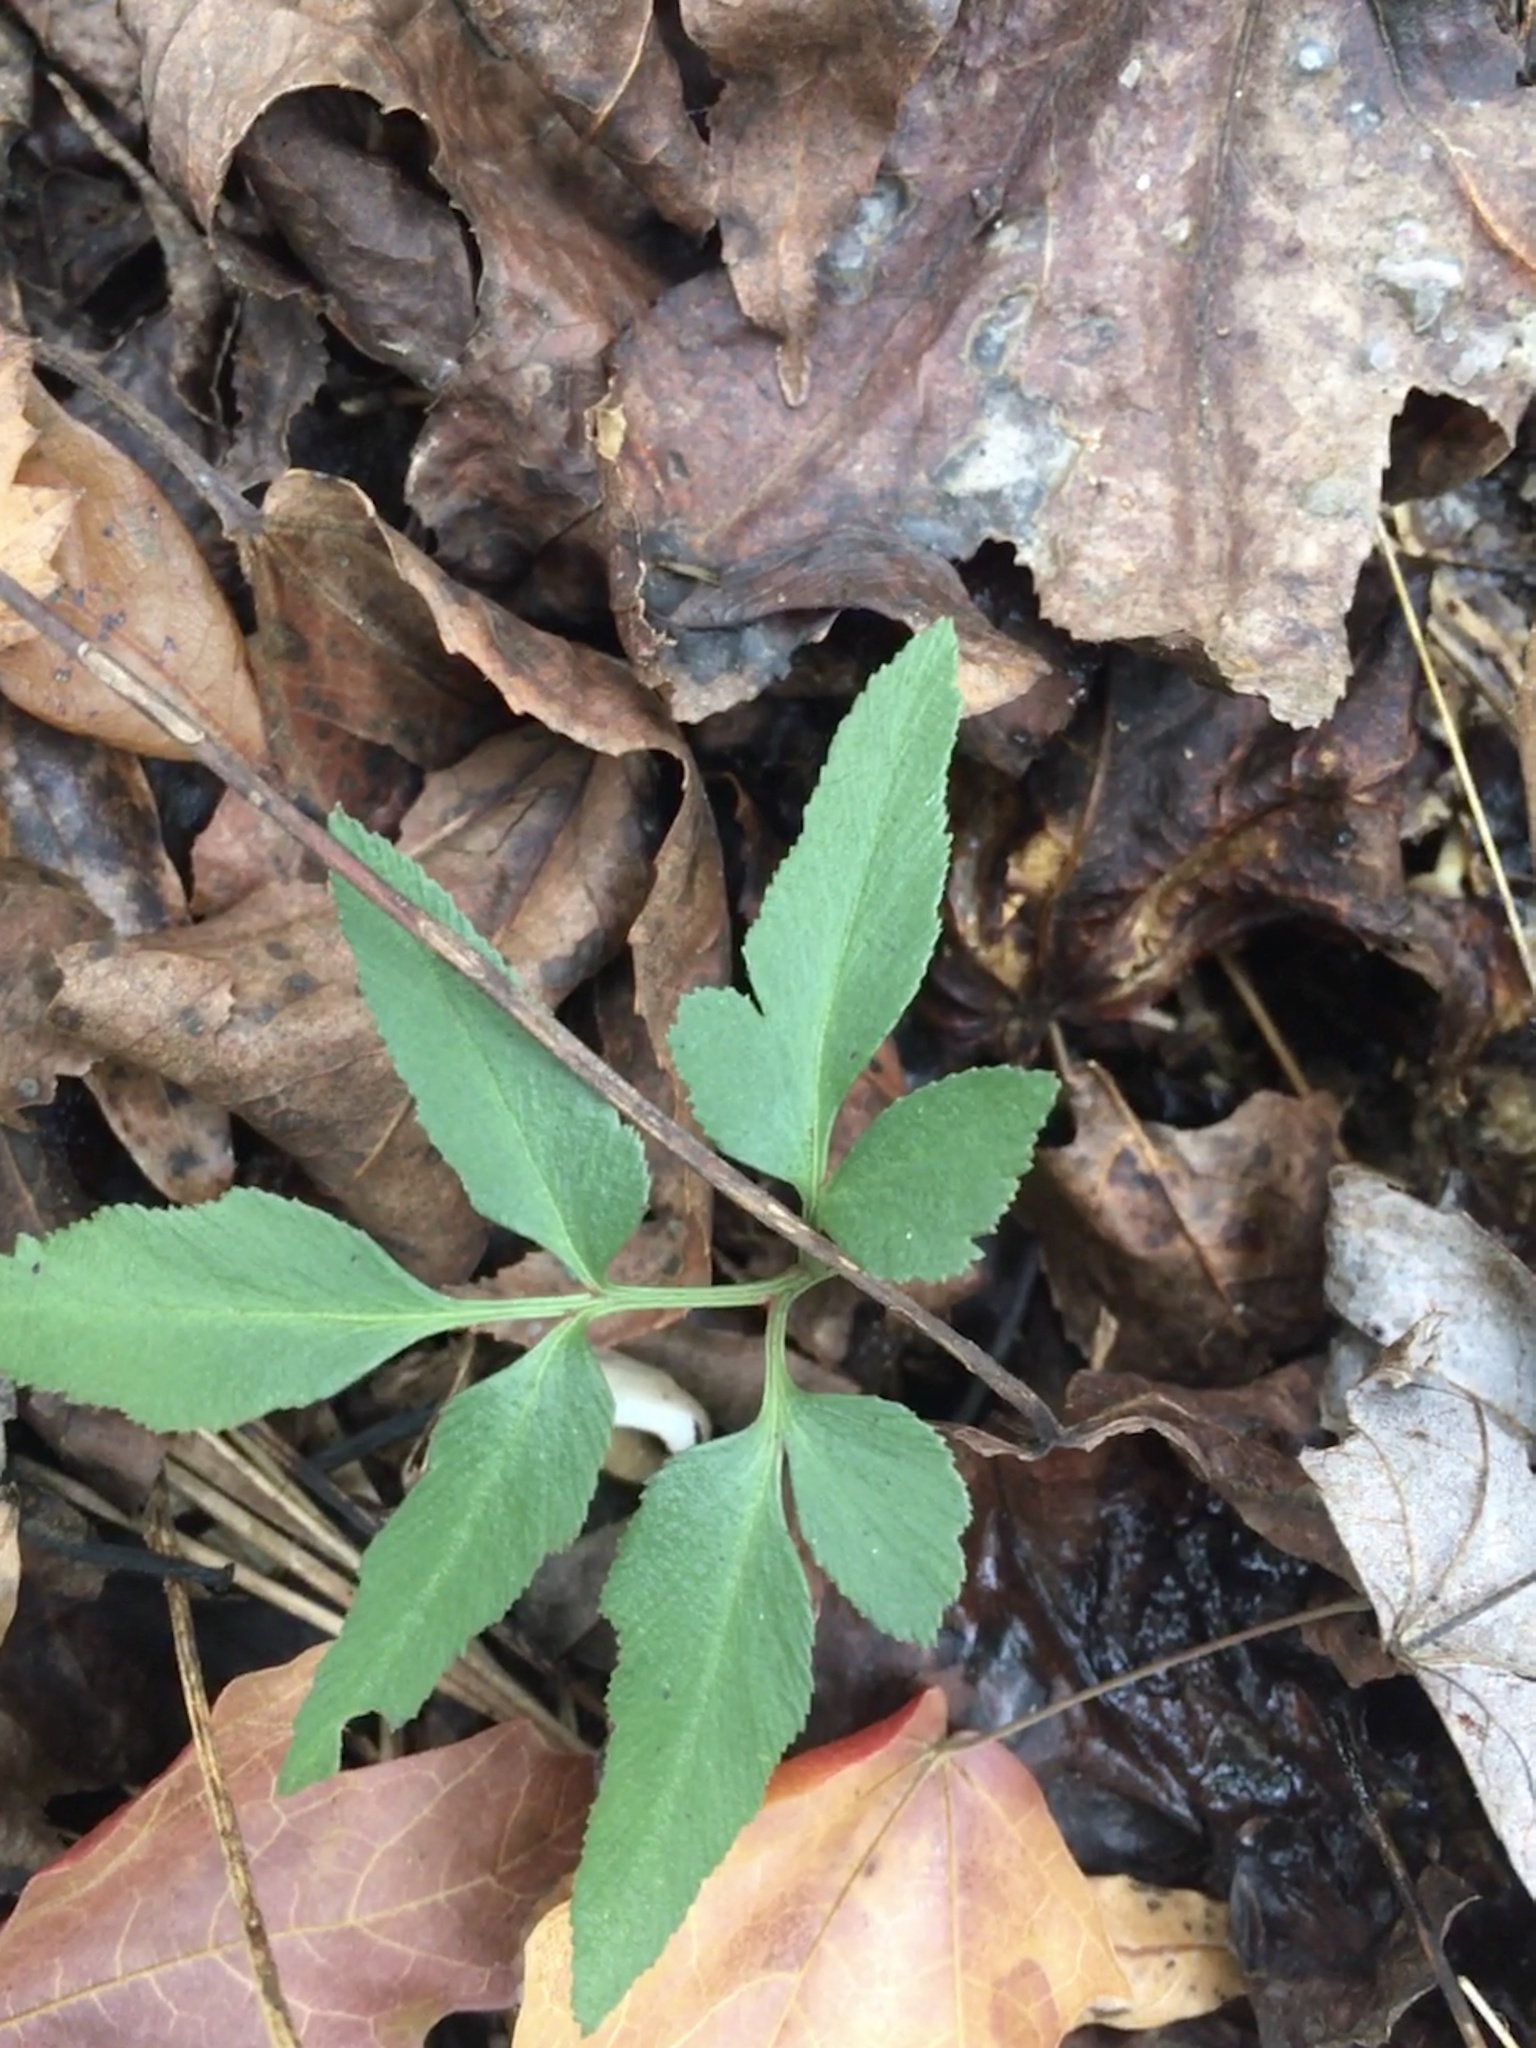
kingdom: Plantae
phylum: Tracheophyta
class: Polypodiopsida
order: Ophioglossales
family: Ophioglossaceae
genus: Sceptridium
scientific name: Sceptridium biternatum
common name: Sparse-lobed grapefern
